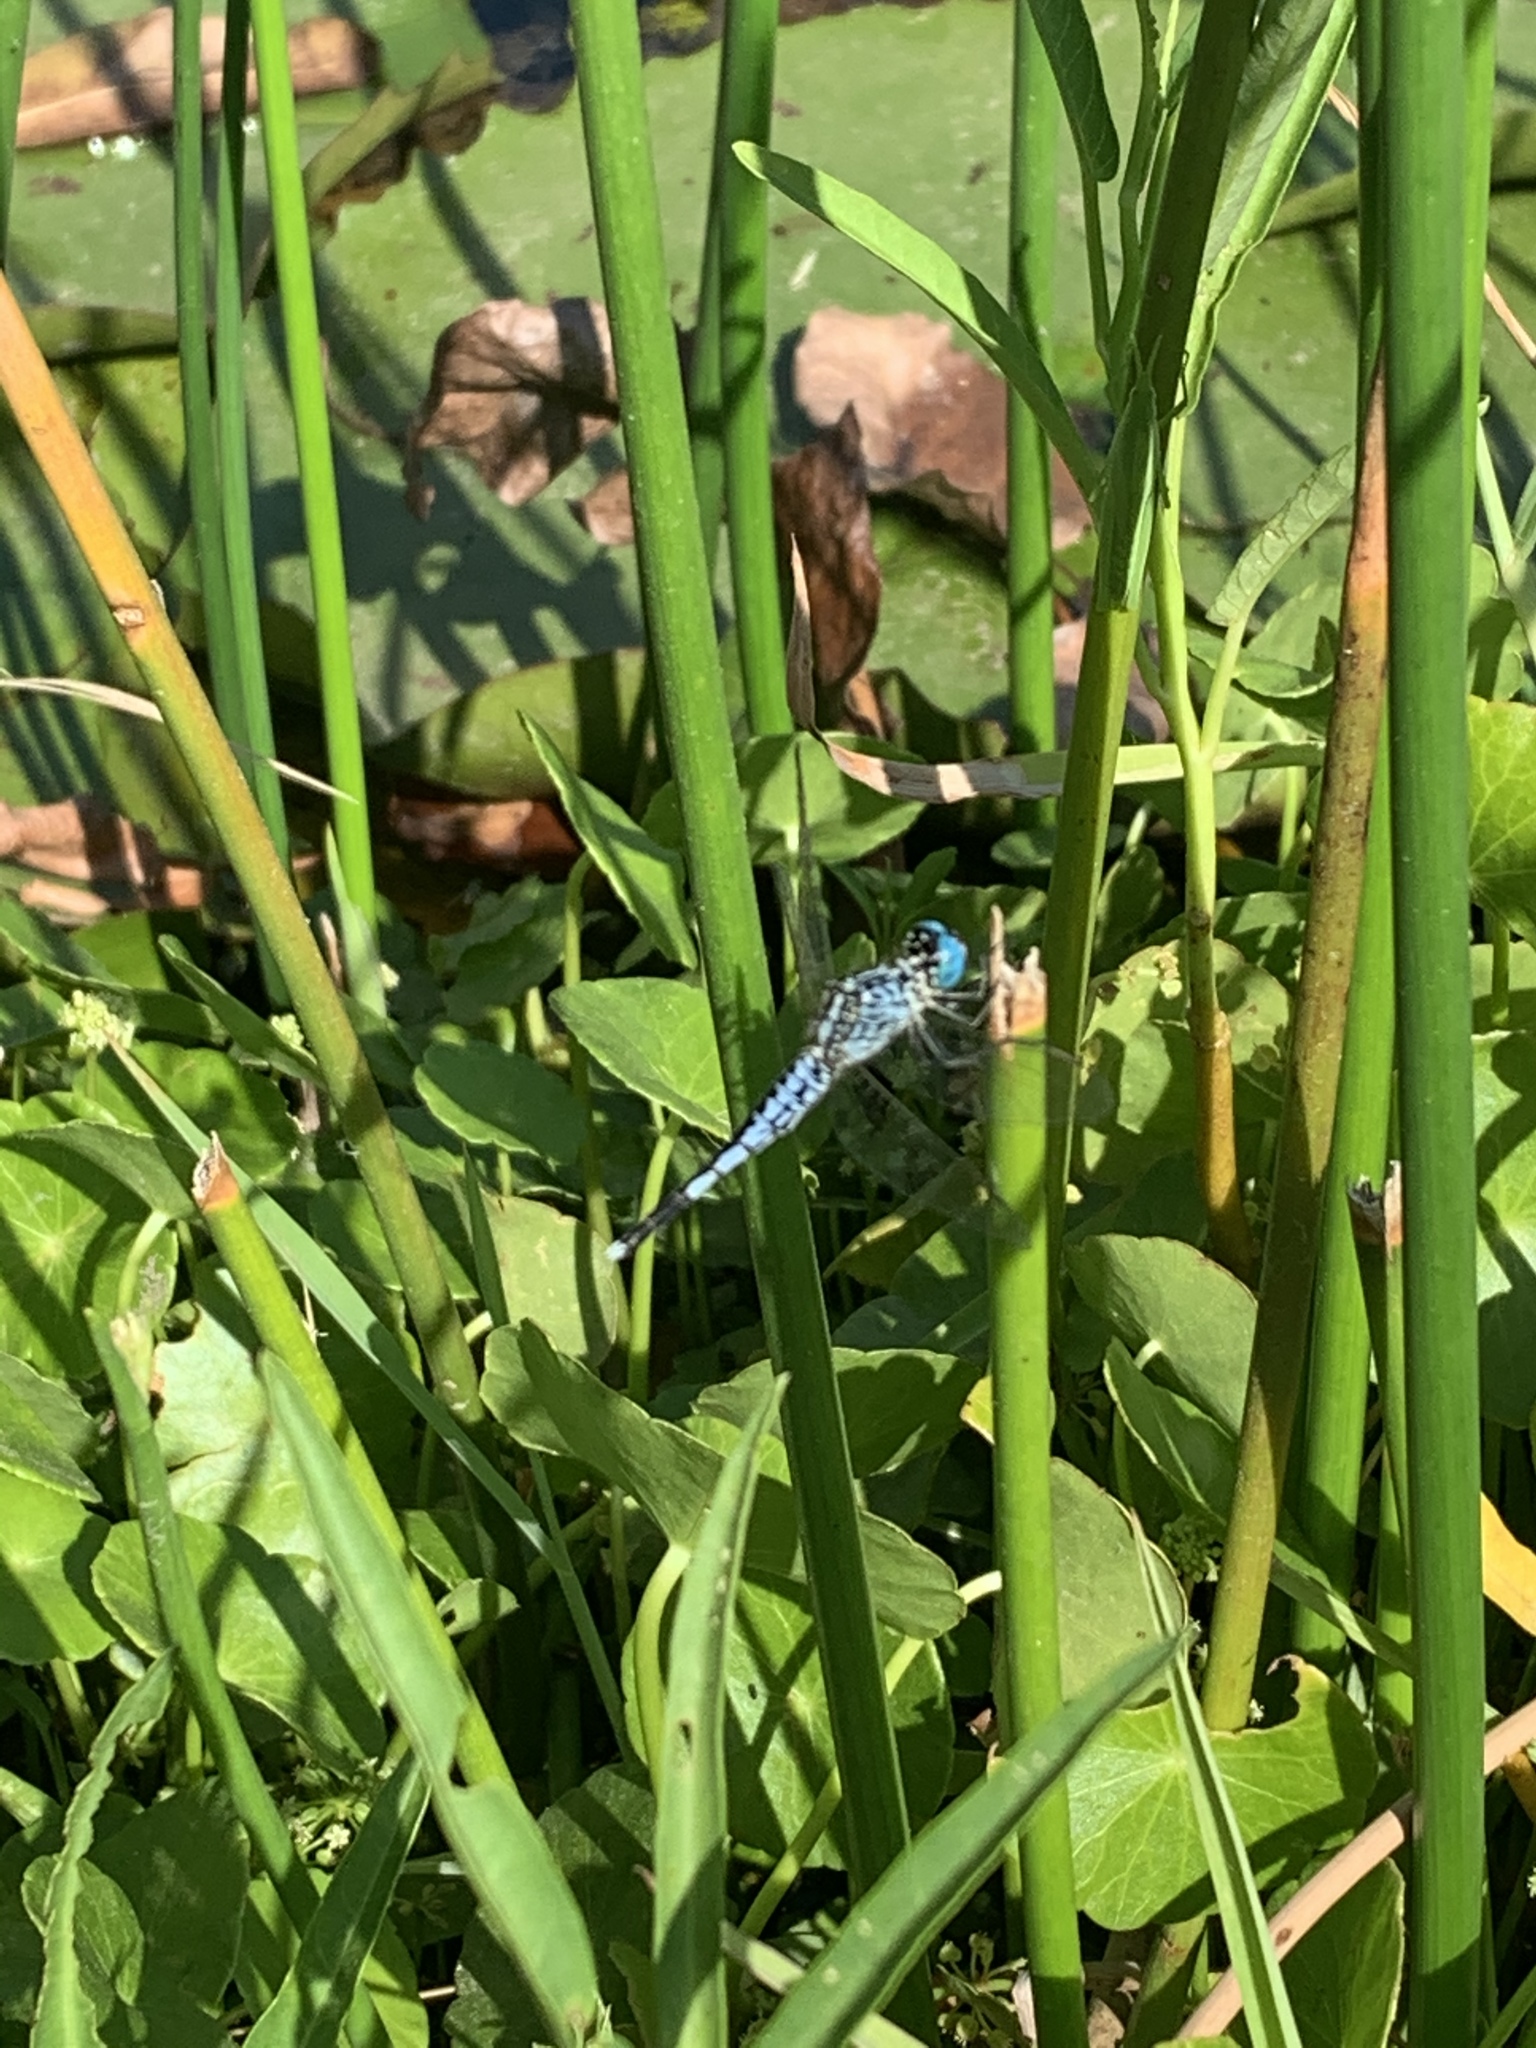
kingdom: Animalia
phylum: Arthropoda
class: Insecta
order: Odonata
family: Libellulidae
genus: Acisoma
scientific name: Acisoma panorpoides
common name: Asian pintail
